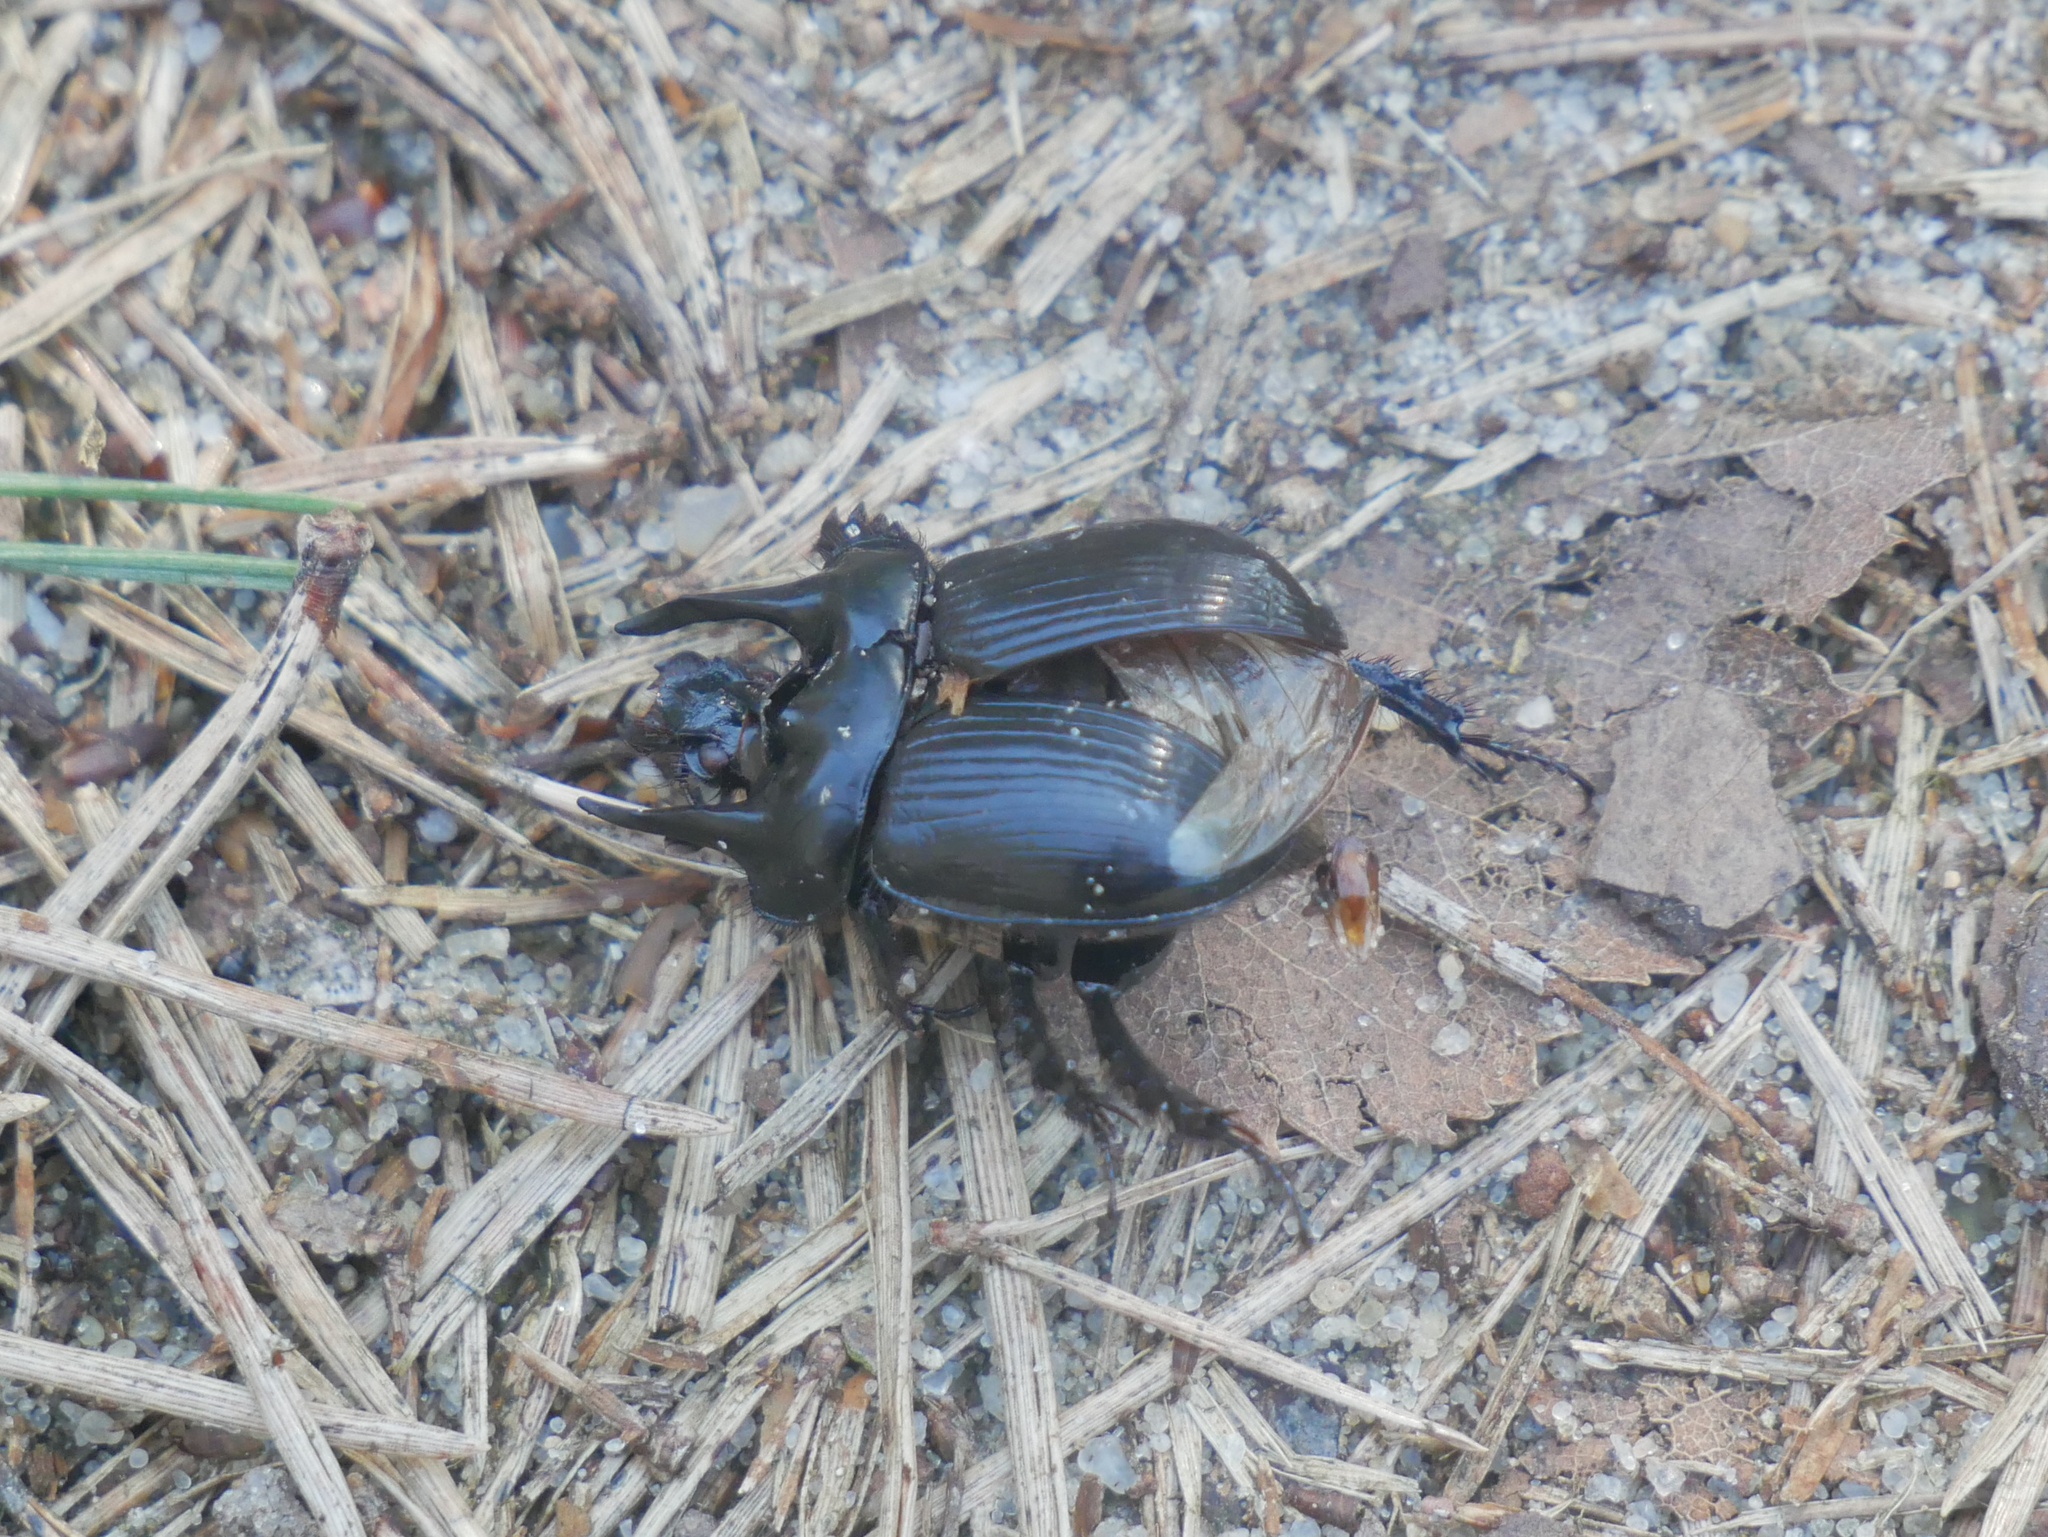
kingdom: Animalia
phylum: Arthropoda
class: Insecta
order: Coleoptera
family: Geotrupidae
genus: Typhaeus
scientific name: Typhaeus typhoeus
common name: Minotaur beetle
